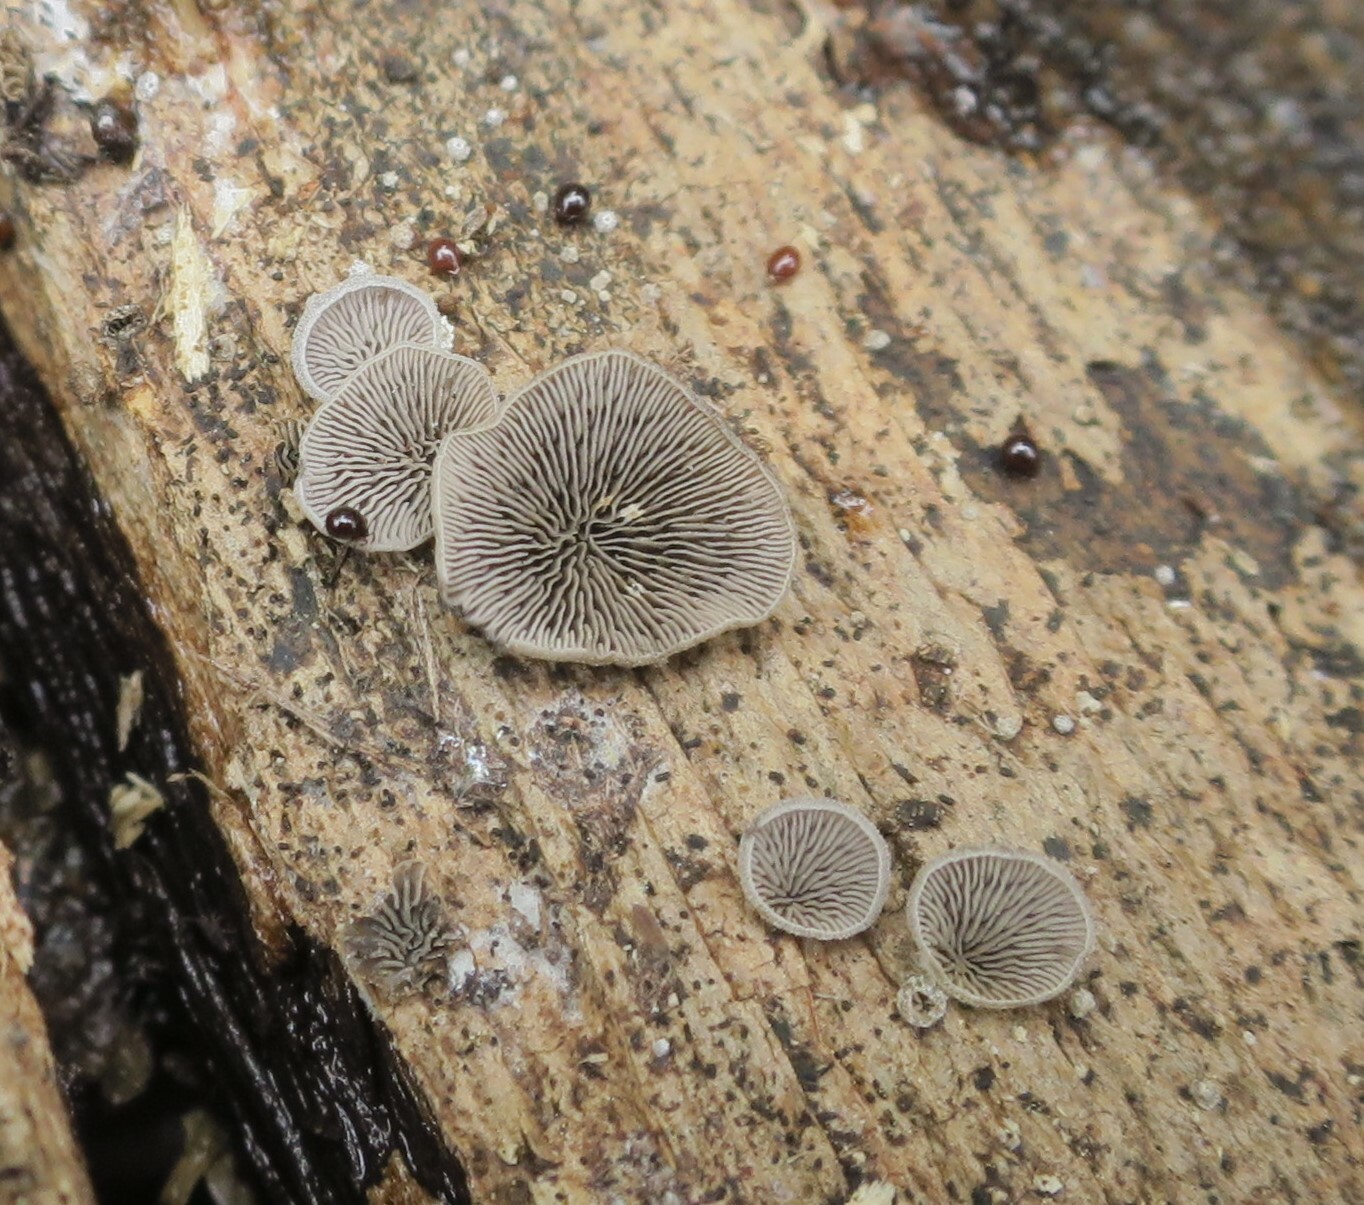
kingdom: Fungi
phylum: Basidiomycota
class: Agaricomycetes
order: Agaricales
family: Omphalotaceae
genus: Marasmiellus
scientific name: Marasmiellus violaceogriseus
